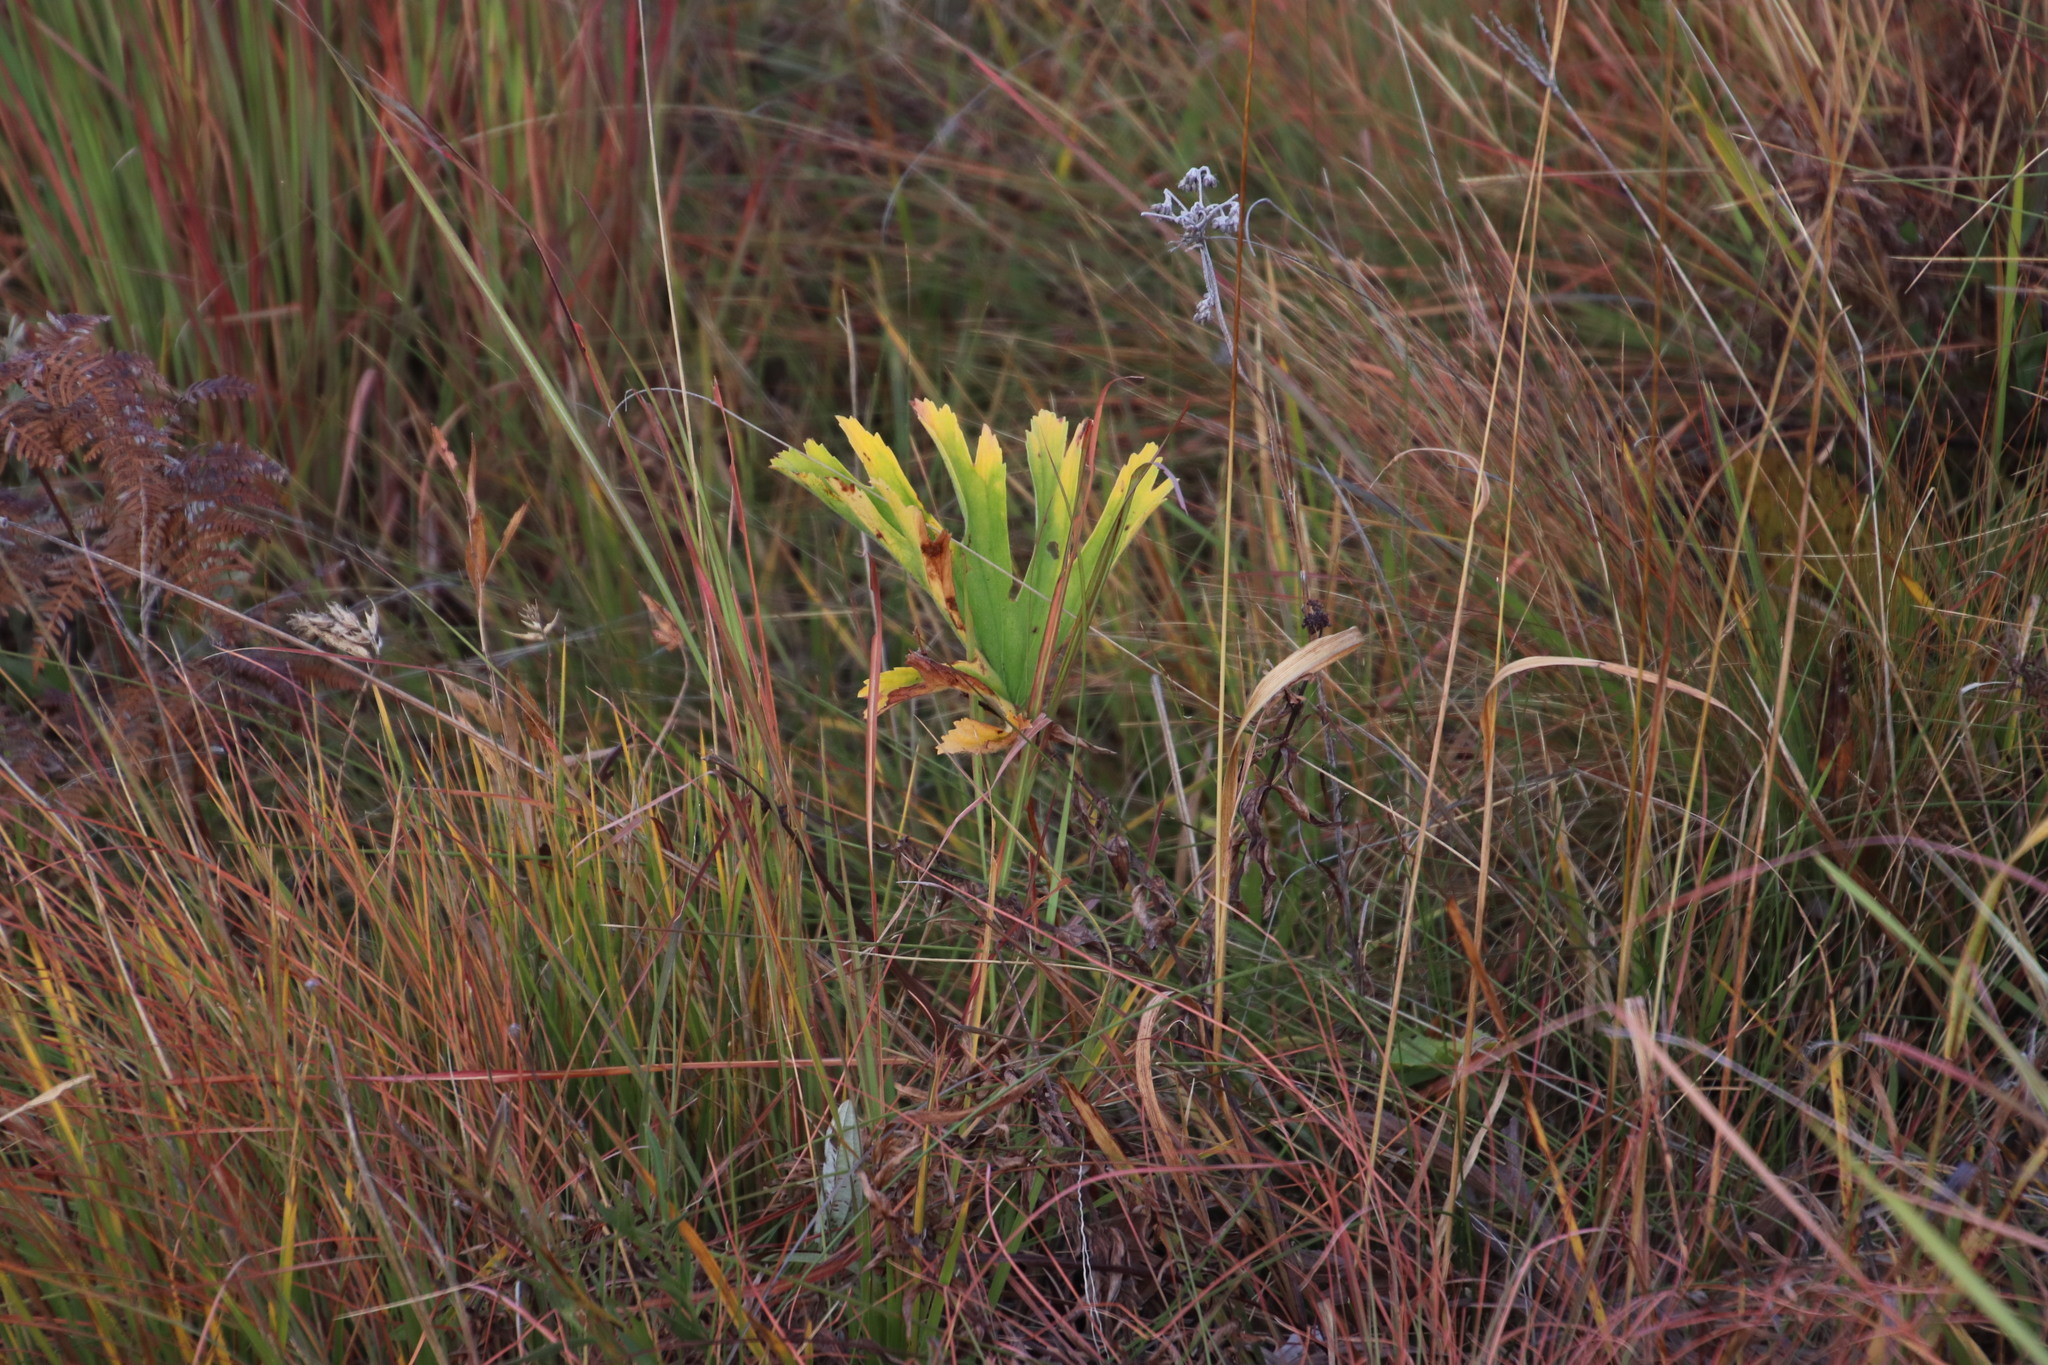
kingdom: Plantae
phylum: Tracheophyta
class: Magnoliopsida
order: Geraniales
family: Geraniaceae
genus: Pelargonium
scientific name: Pelargonium luridum
